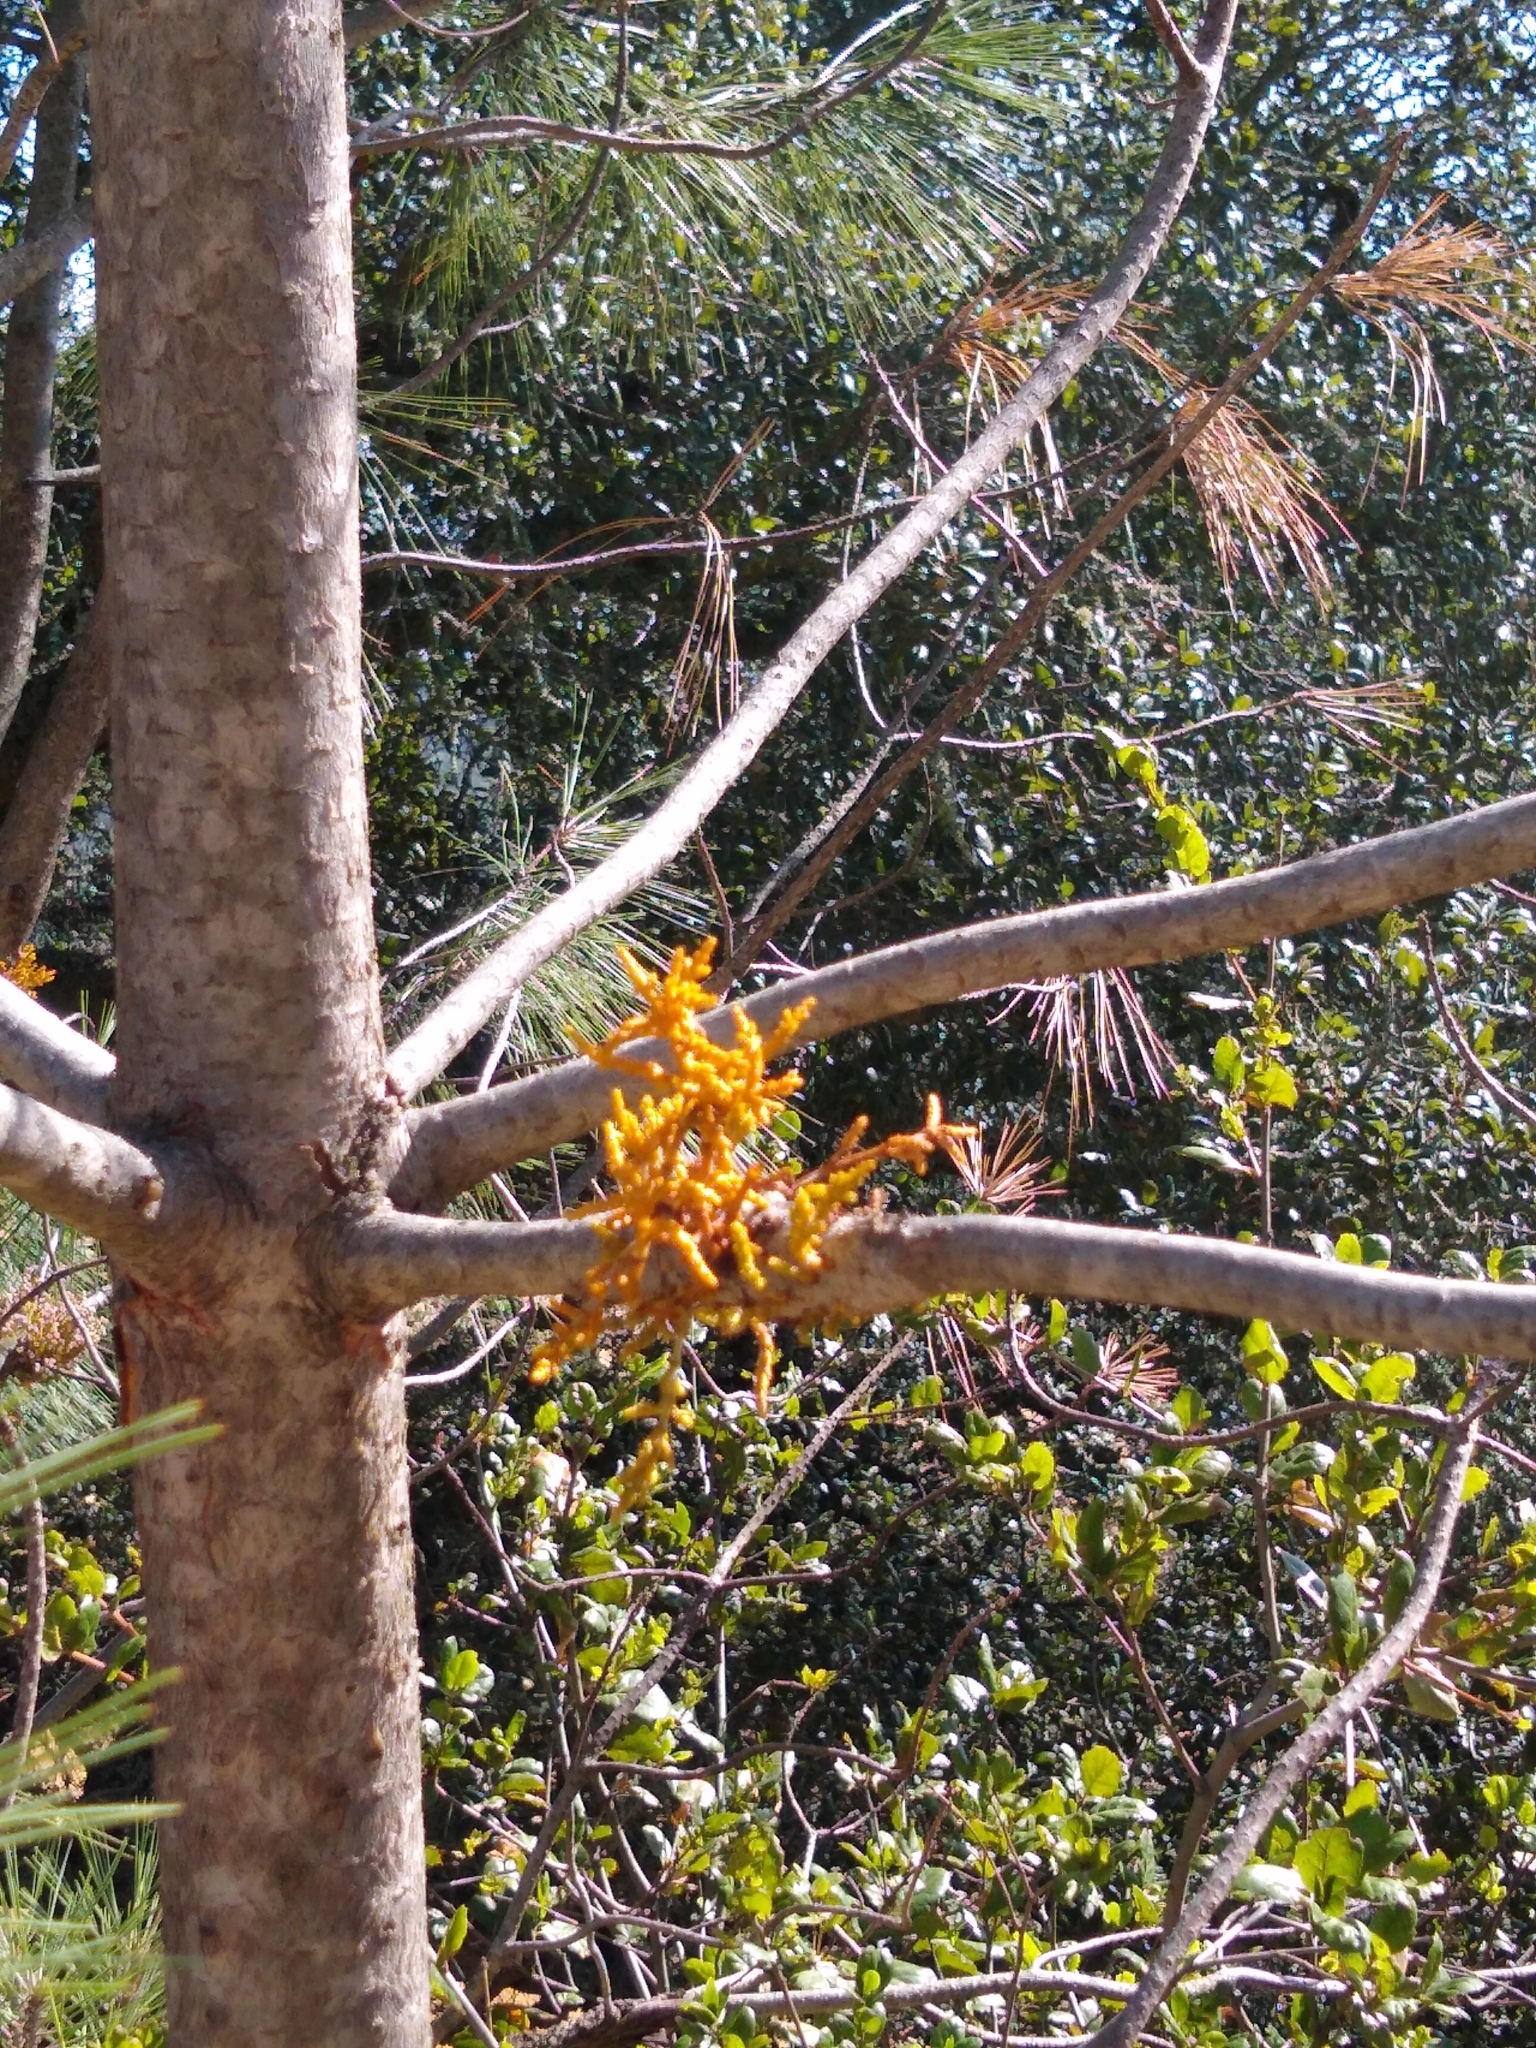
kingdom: Plantae
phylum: Tracheophyta
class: Magnoliopsida
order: Santalales
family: Viscaceae
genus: Arceuthobium
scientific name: Arceuthobium campylopodum
